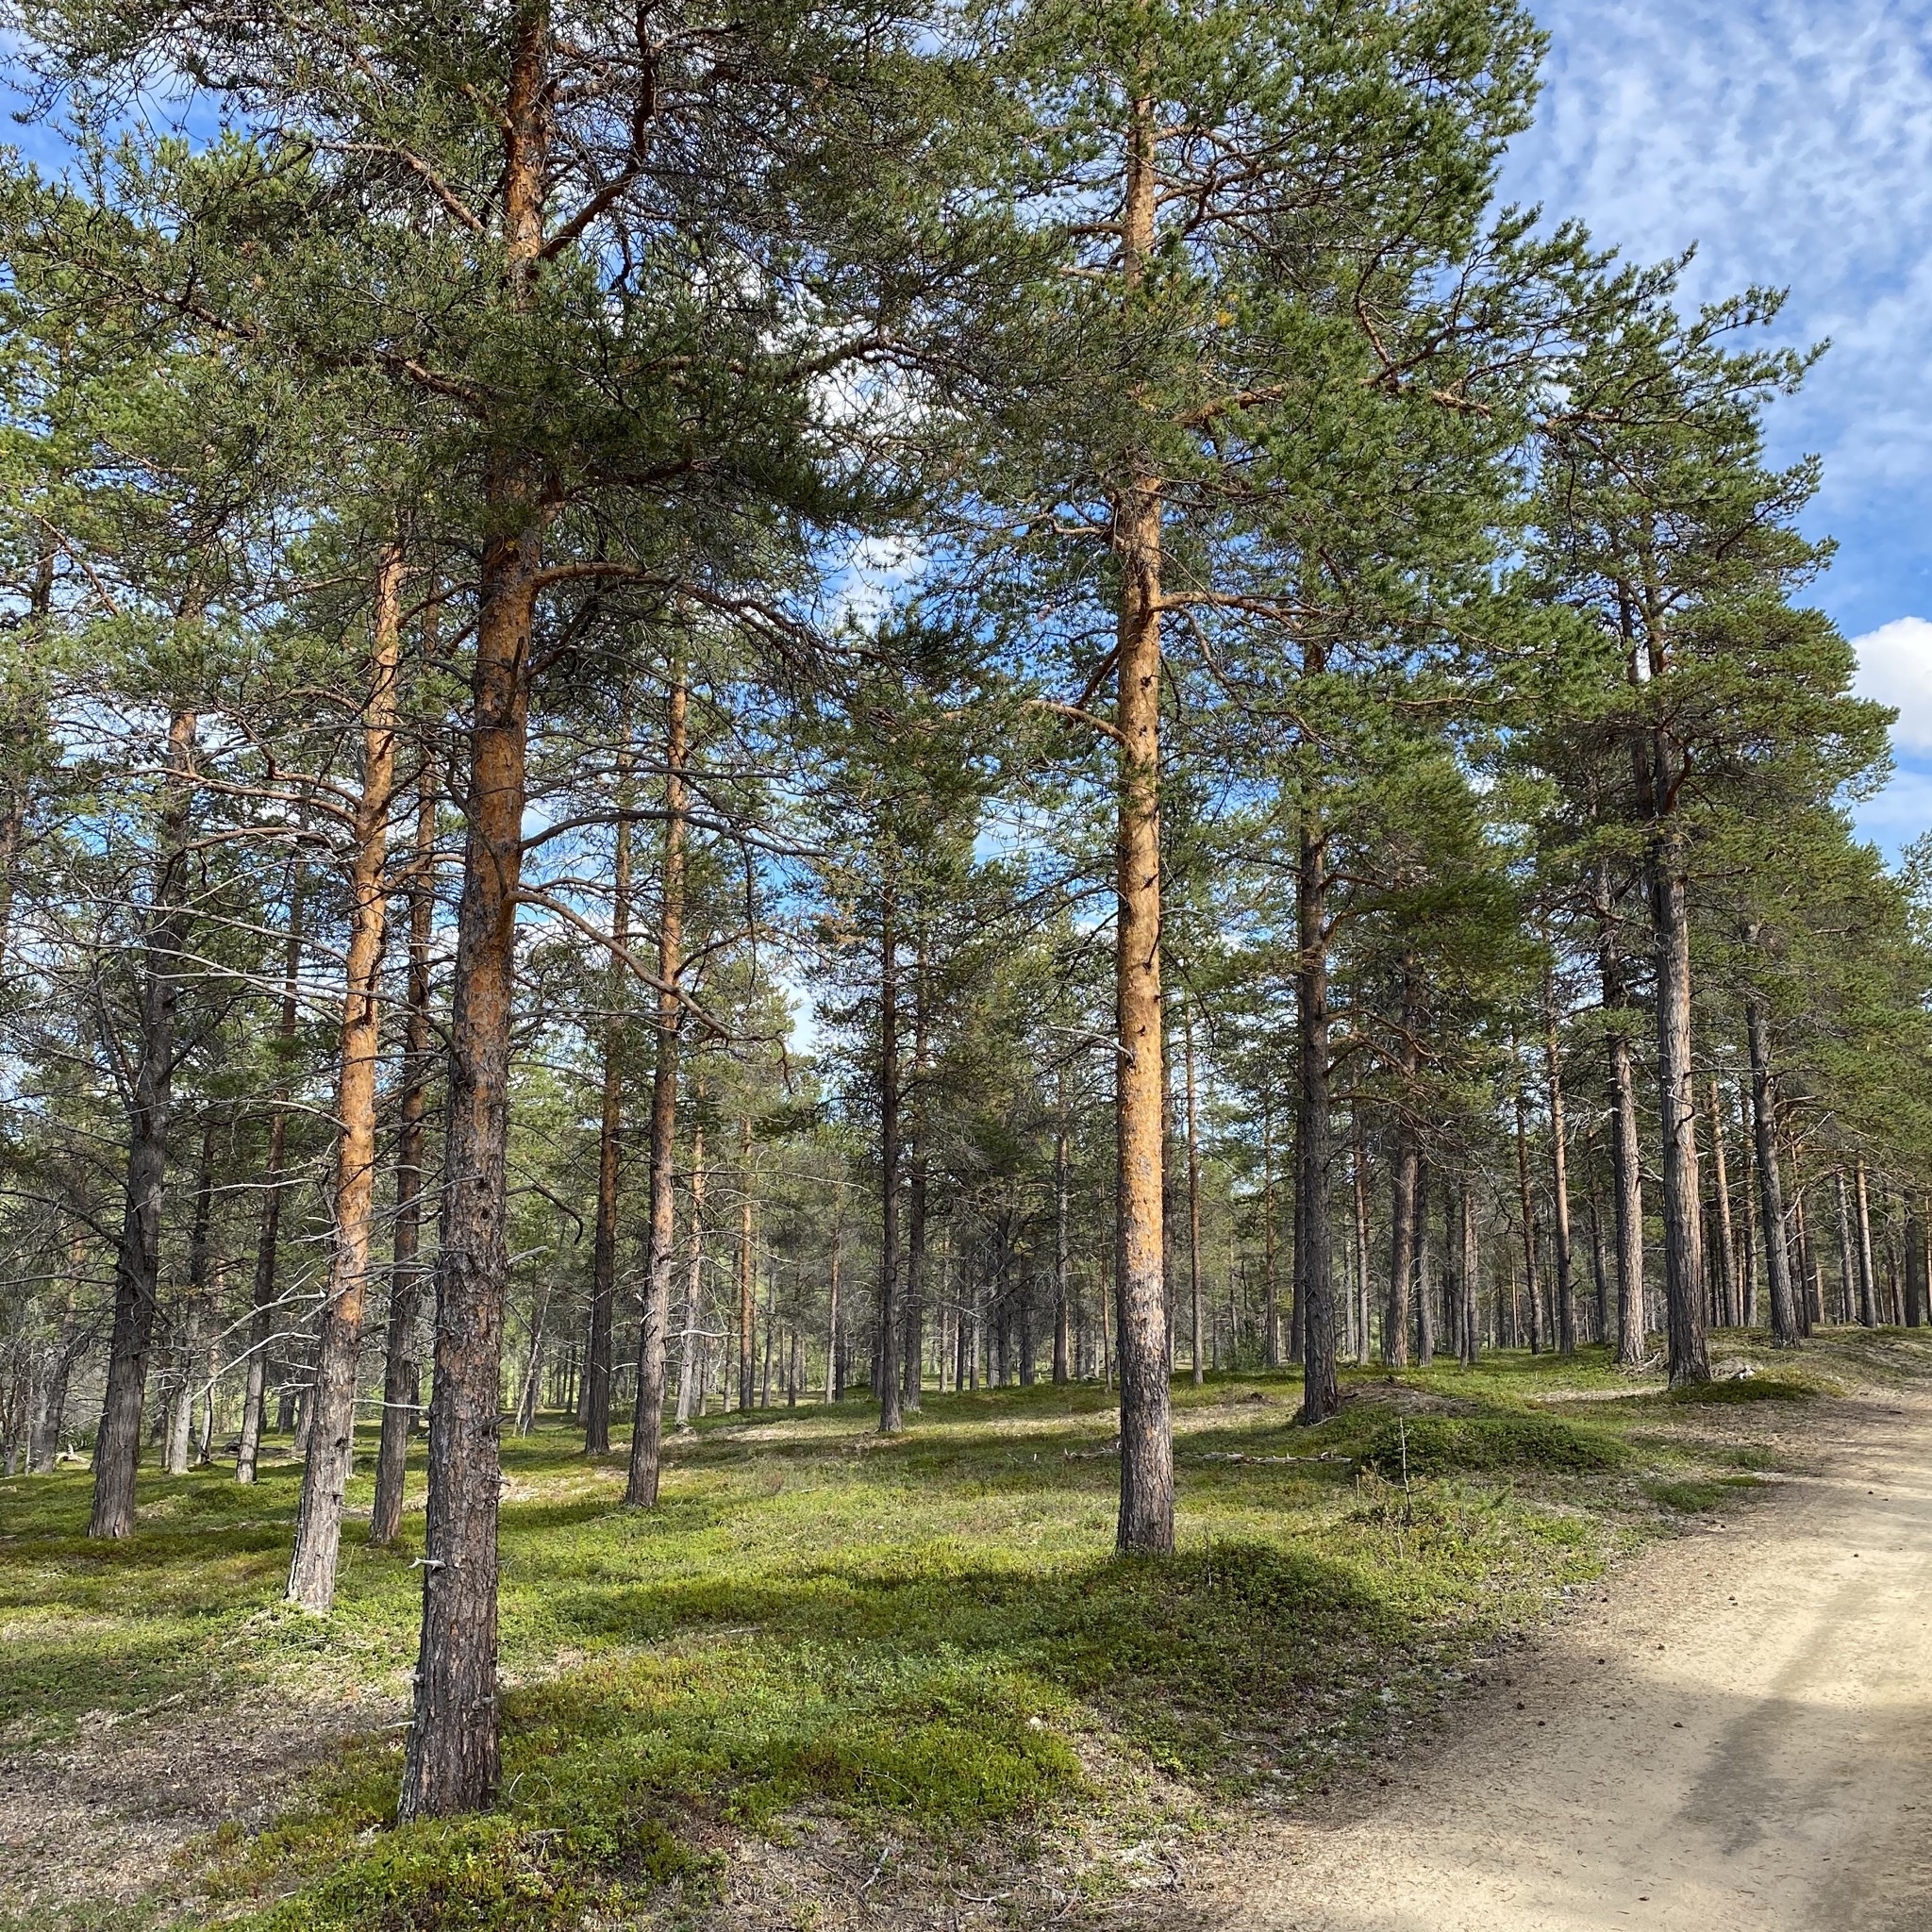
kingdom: Plantae
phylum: Tracheophyta
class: Pinopsida
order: Pinales
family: Pinaceae
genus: Pinus
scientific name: Pinus sylvestris
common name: Scots pine
